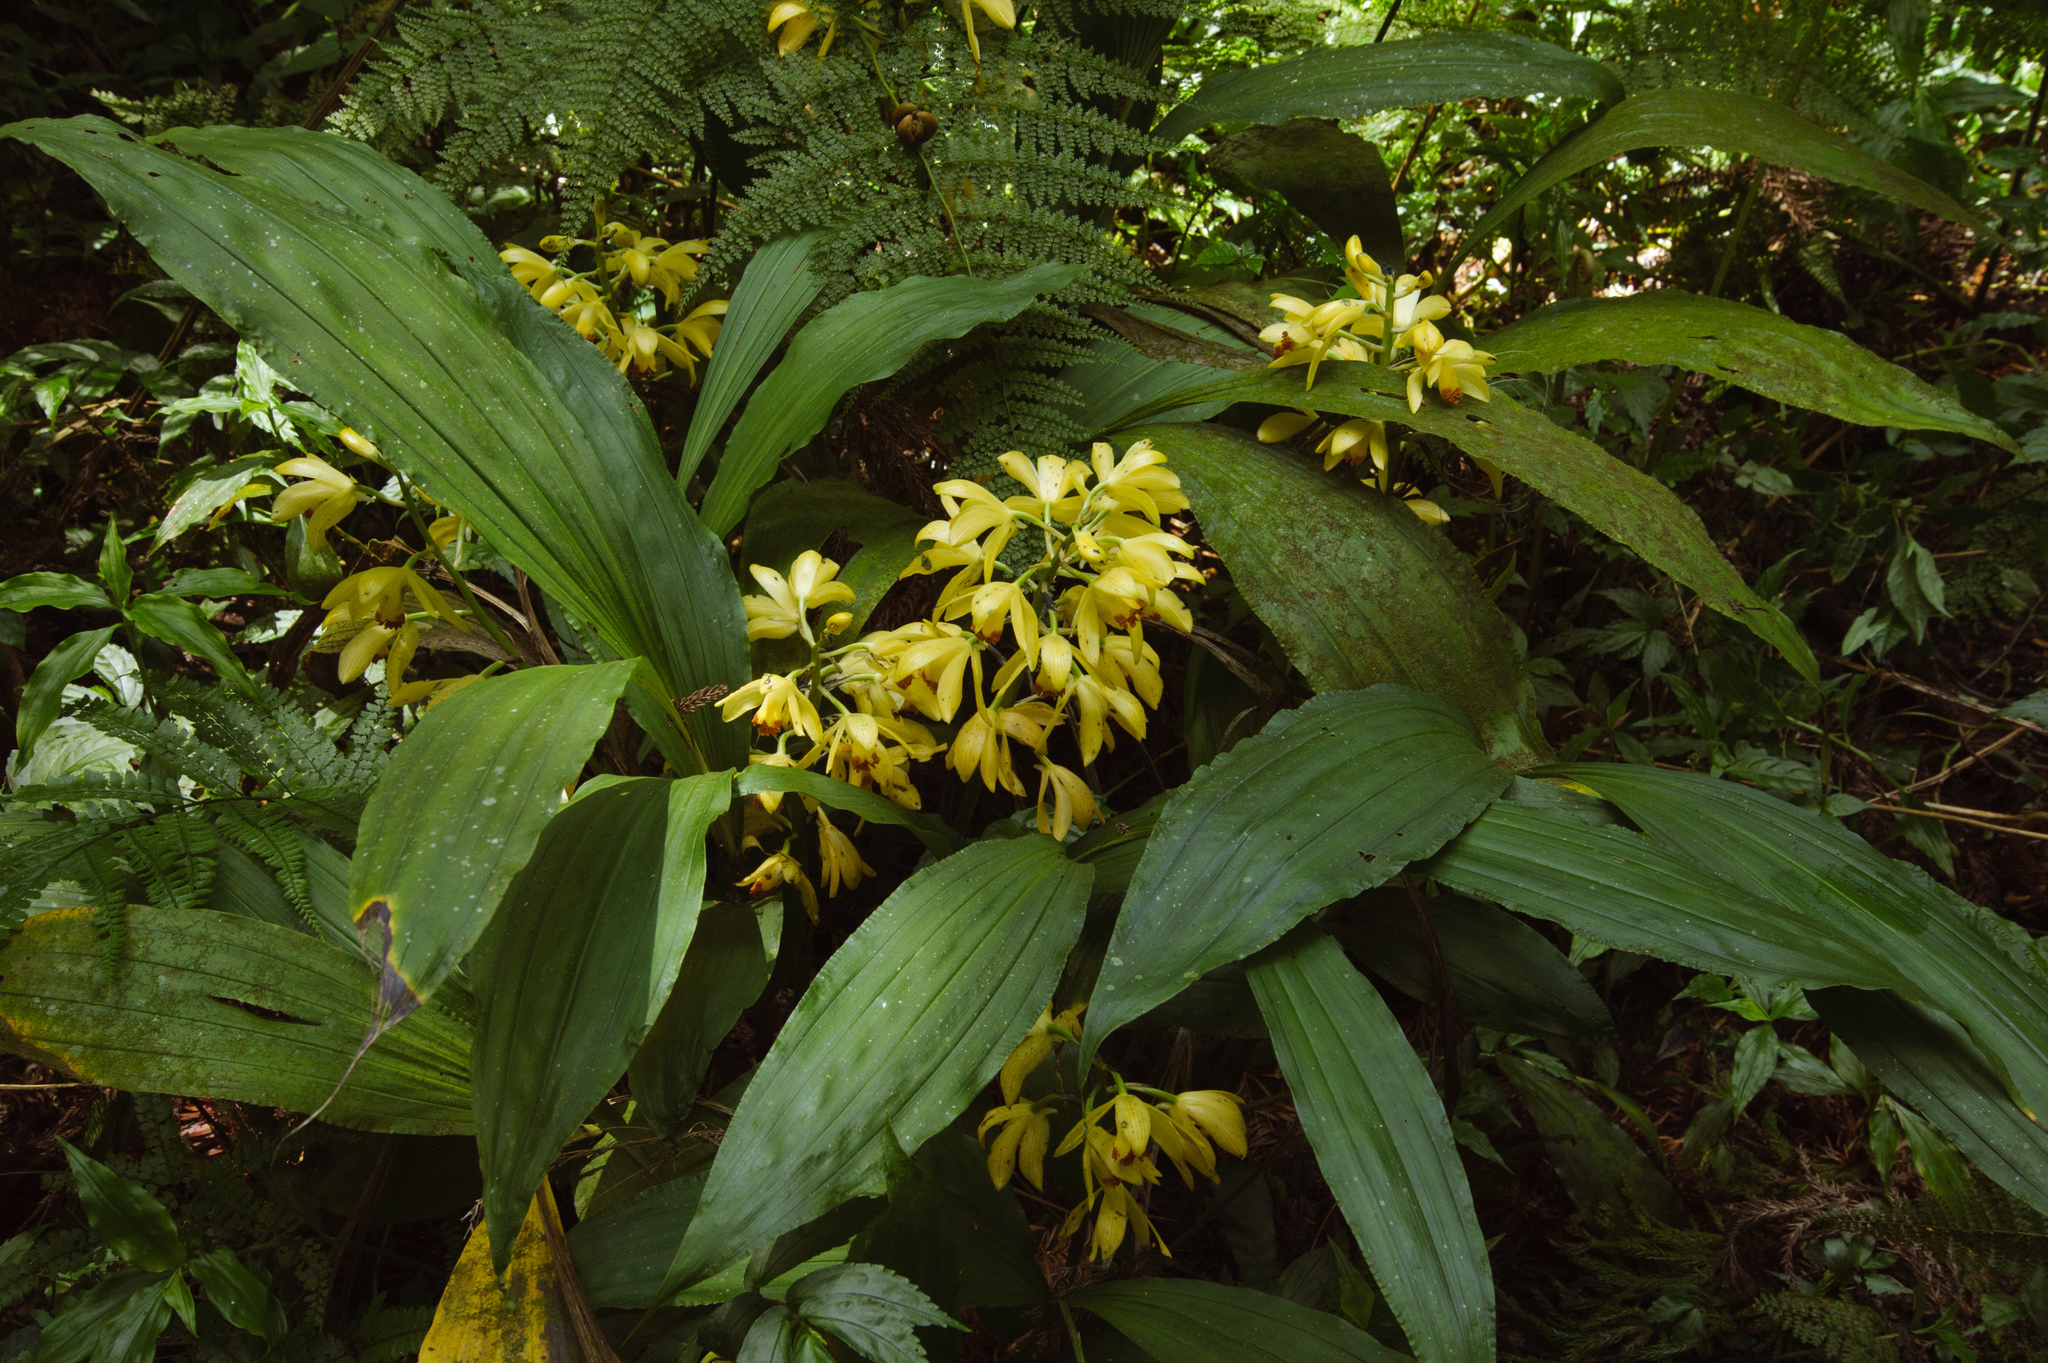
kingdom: Plantae
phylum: Tracheophyta
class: Liliopsida
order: Asparagales
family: Orchidaceae
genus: Calanthe
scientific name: Calanthe woodfordii
